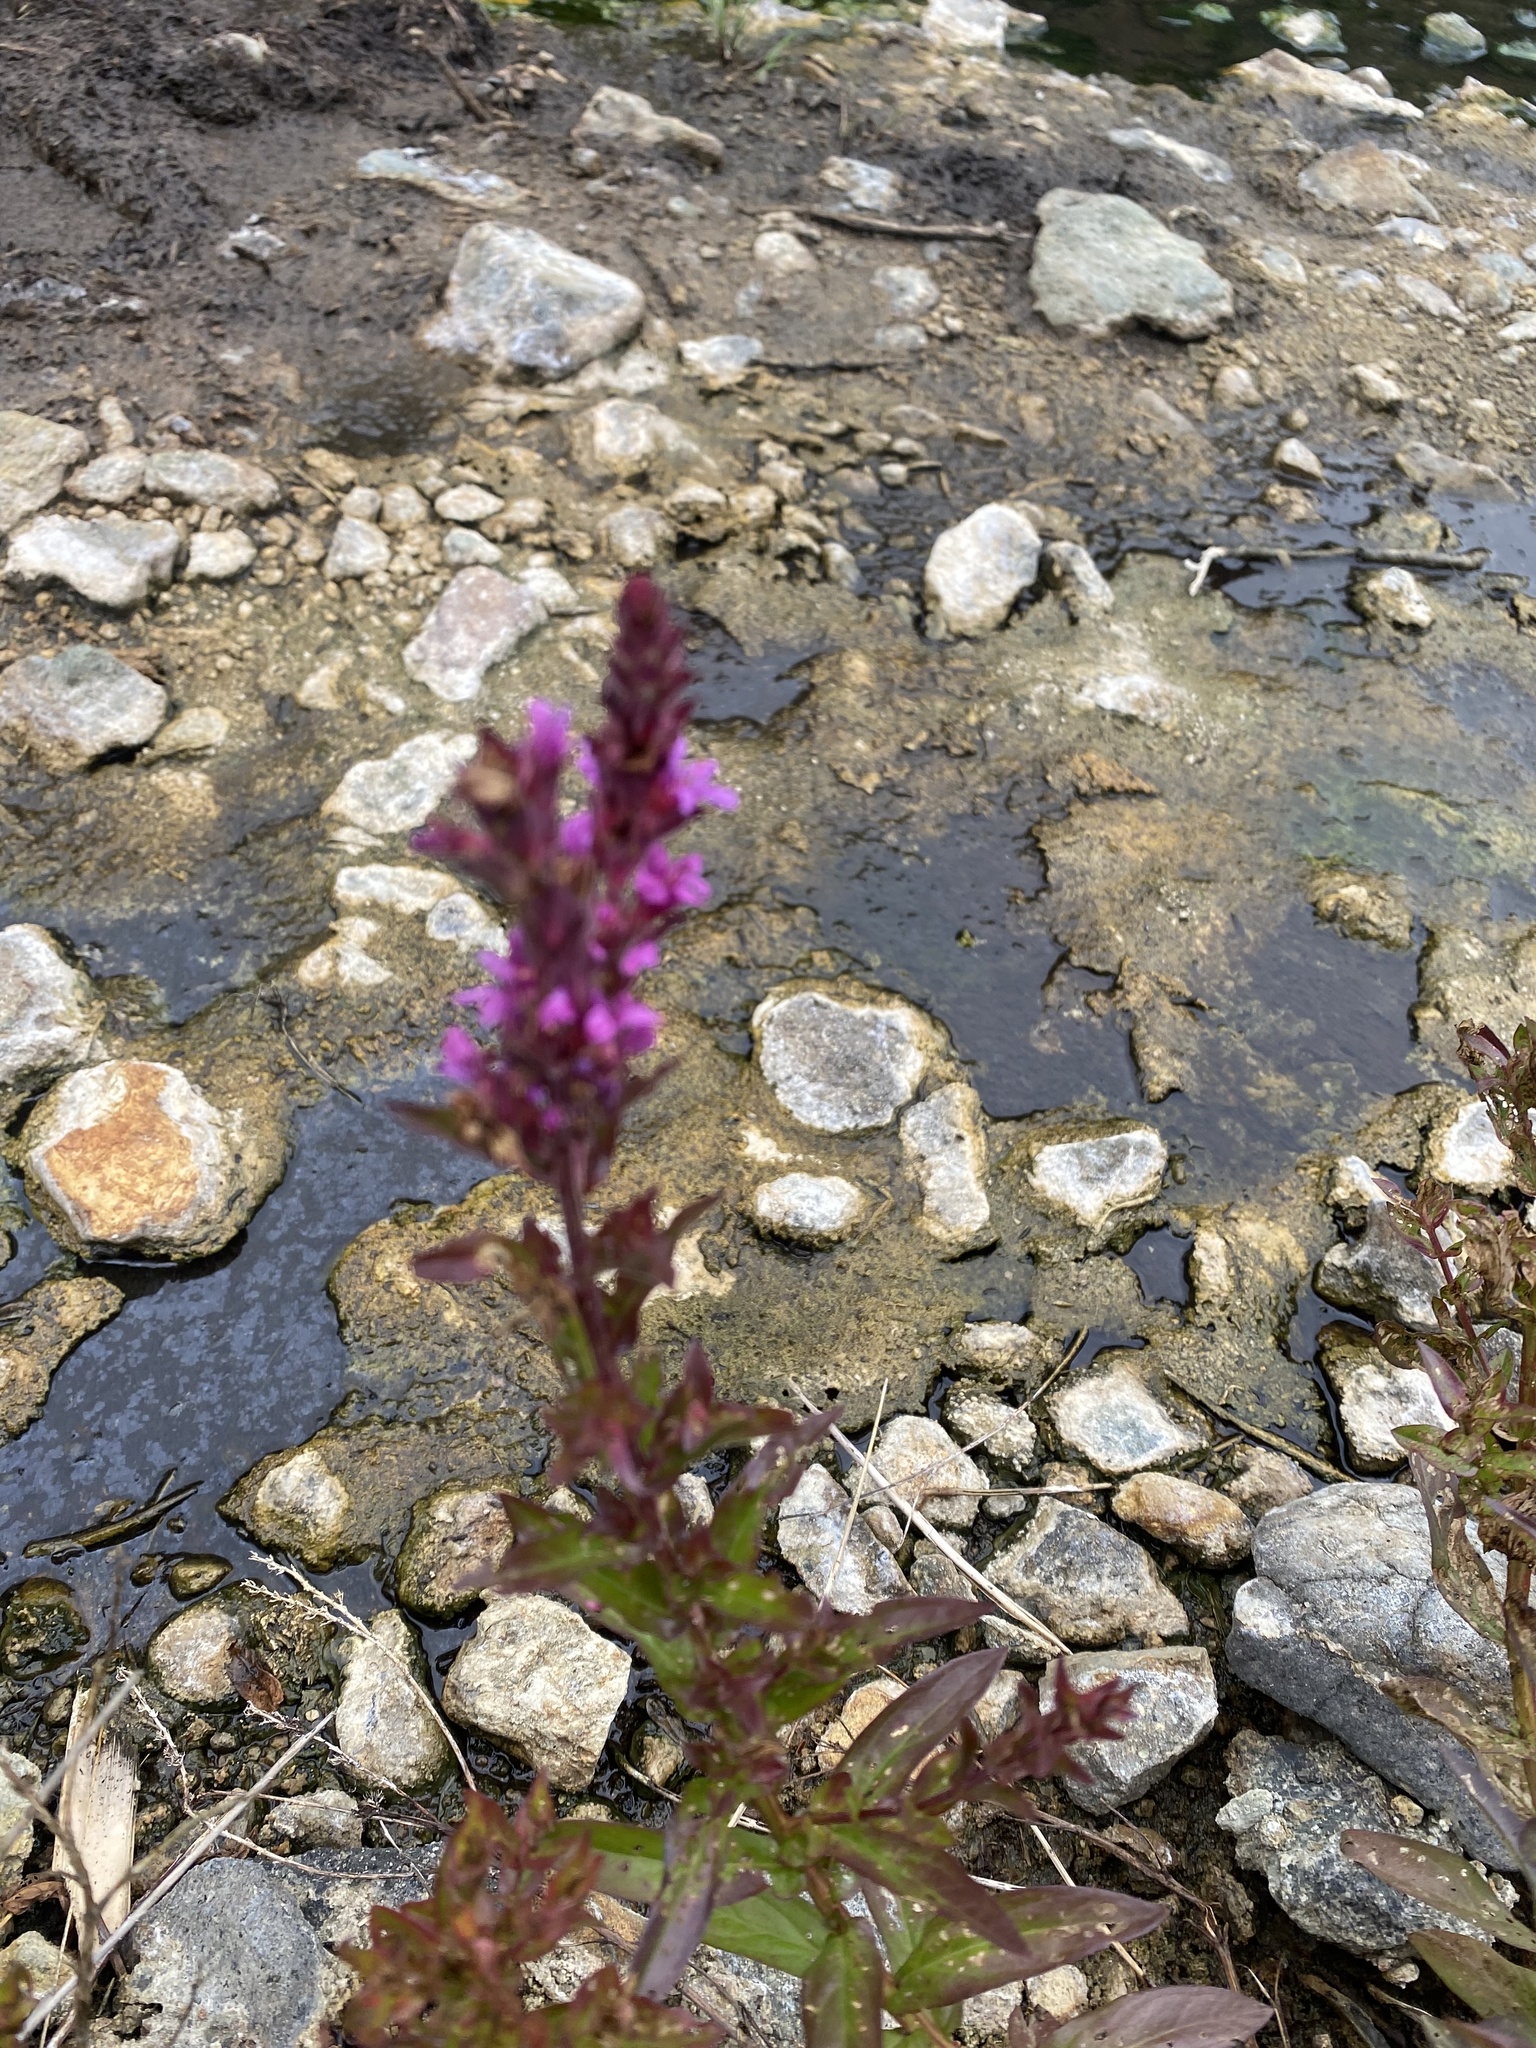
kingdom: Plantae
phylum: Tracheophyta
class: Magnoliopsida
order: Myrtales
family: Lythraceae
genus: Lythrum
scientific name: Lythrum salicaria
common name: Purple loosestrife
